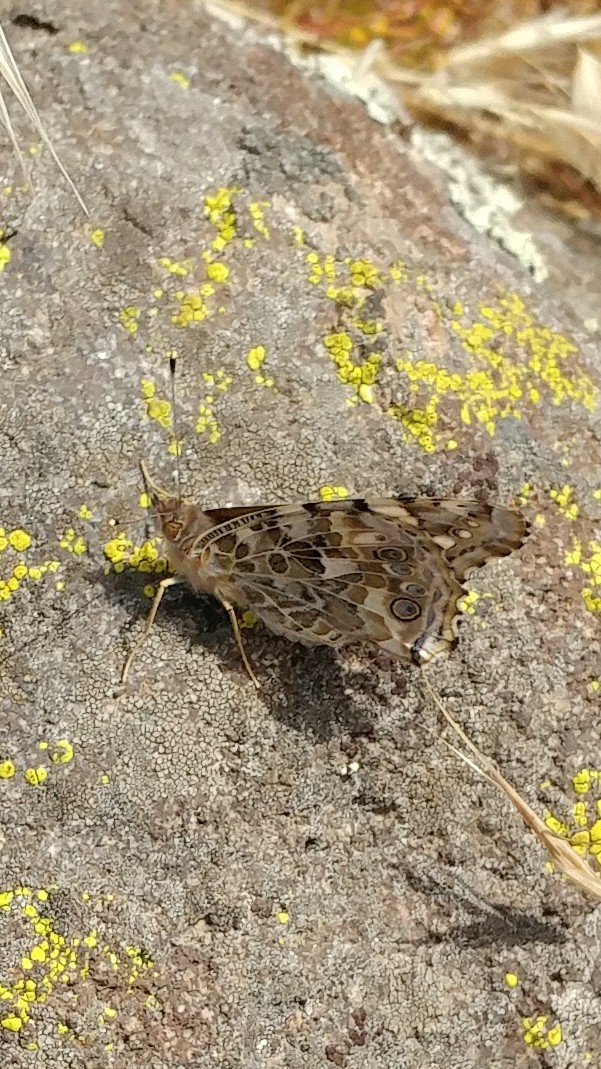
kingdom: Animalia
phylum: Arthropoda
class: Insecta
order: Lepidoptera
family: Nymphalidae
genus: Vanessa
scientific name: Vanessa cardui
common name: Painted lady
